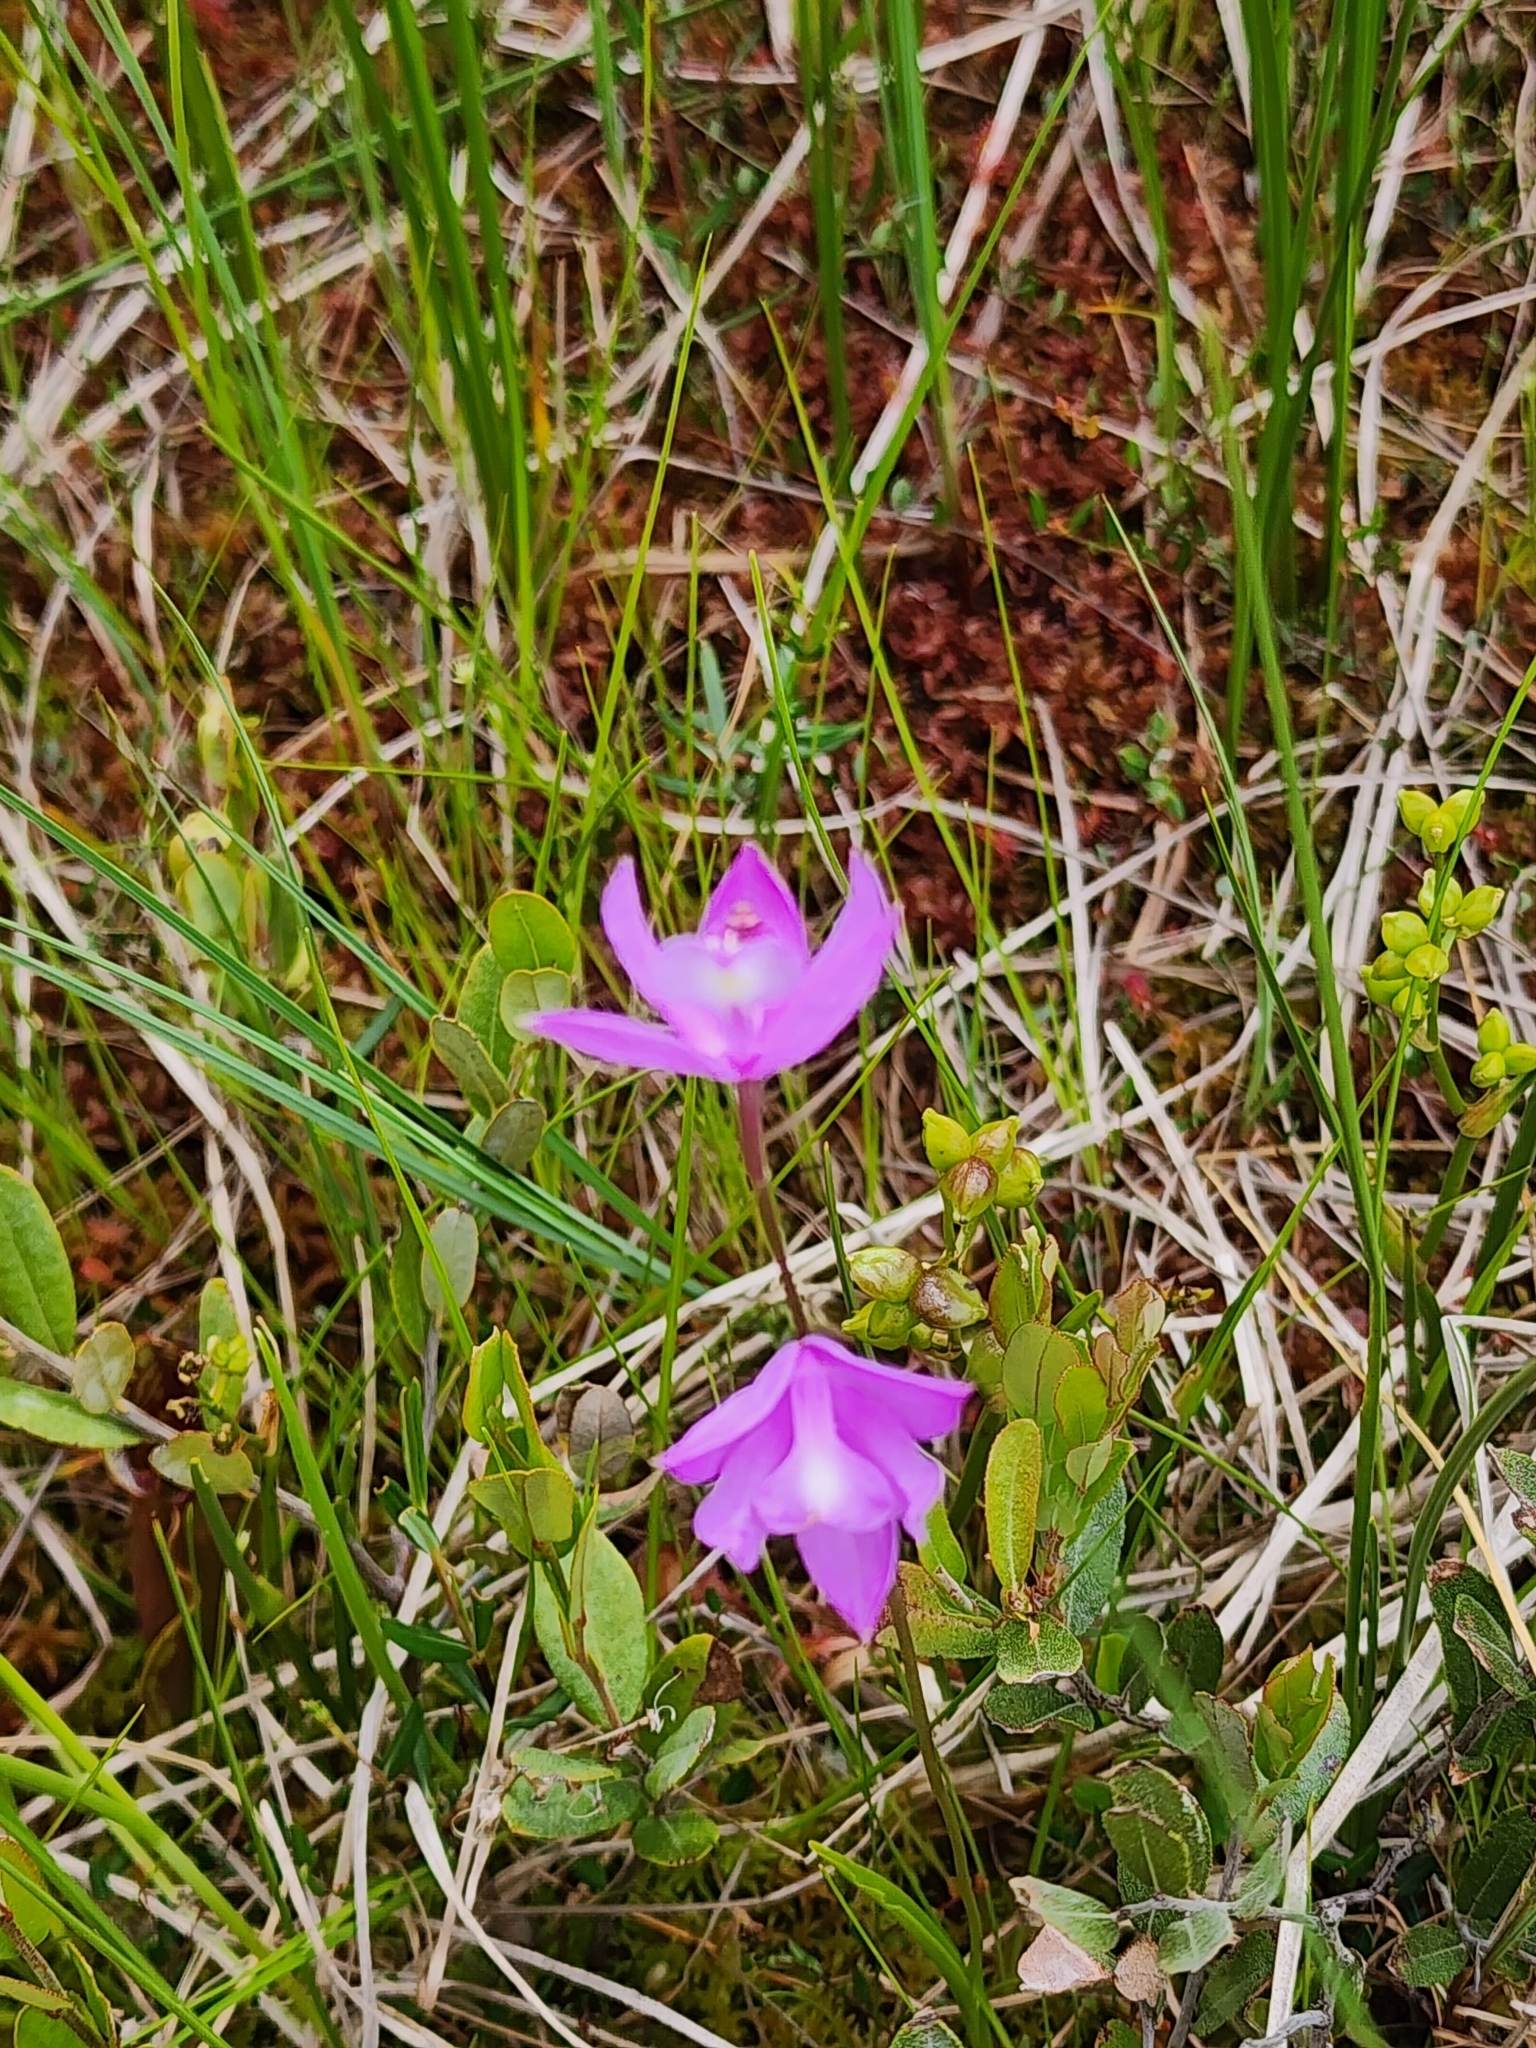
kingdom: Plantae
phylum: Tracheophyta
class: Liliopsida
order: Asparagales
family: Orchidaceae
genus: Calopogon
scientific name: Calopogon tuberosus
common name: Grass-pink
